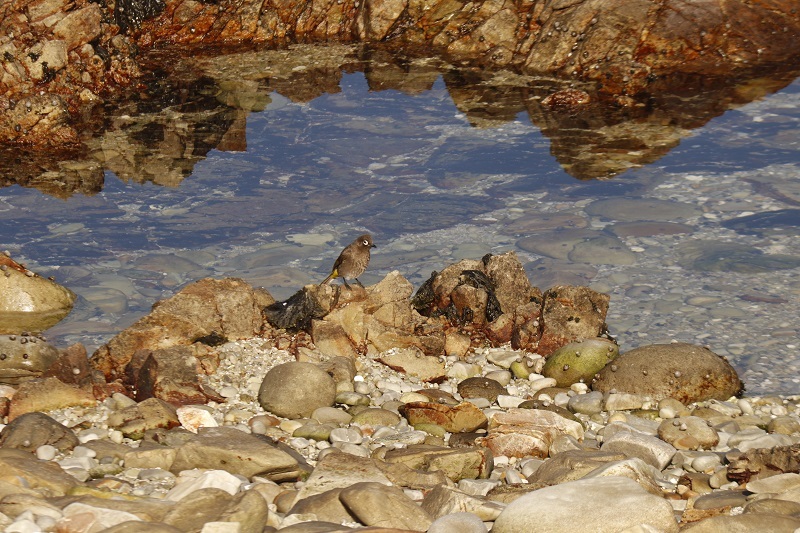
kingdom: Animalia
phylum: Chordata
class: Aves
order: Passeriformes
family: Pycnonotidae
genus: Pycnonotus
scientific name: Pycnonotus capensis
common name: Cape bulbul
